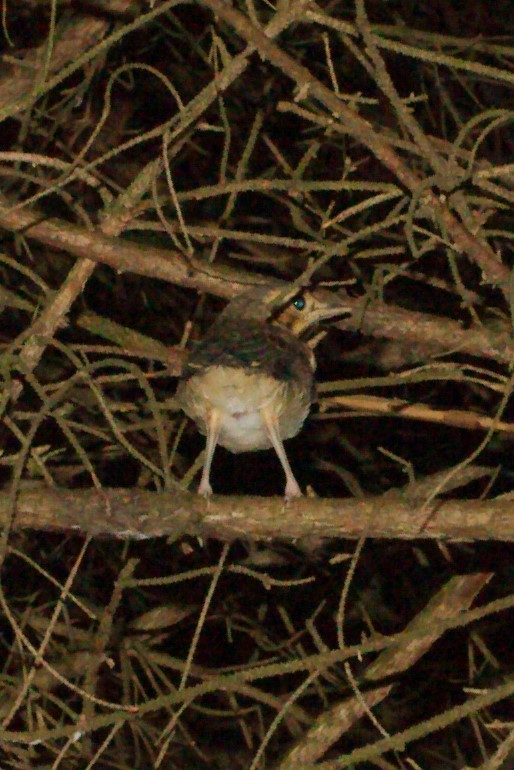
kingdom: Animalia
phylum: Chordata
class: Aves
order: Passeriformes
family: Turdidae
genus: Turdus
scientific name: Turdus philomelos
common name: Song thrush
